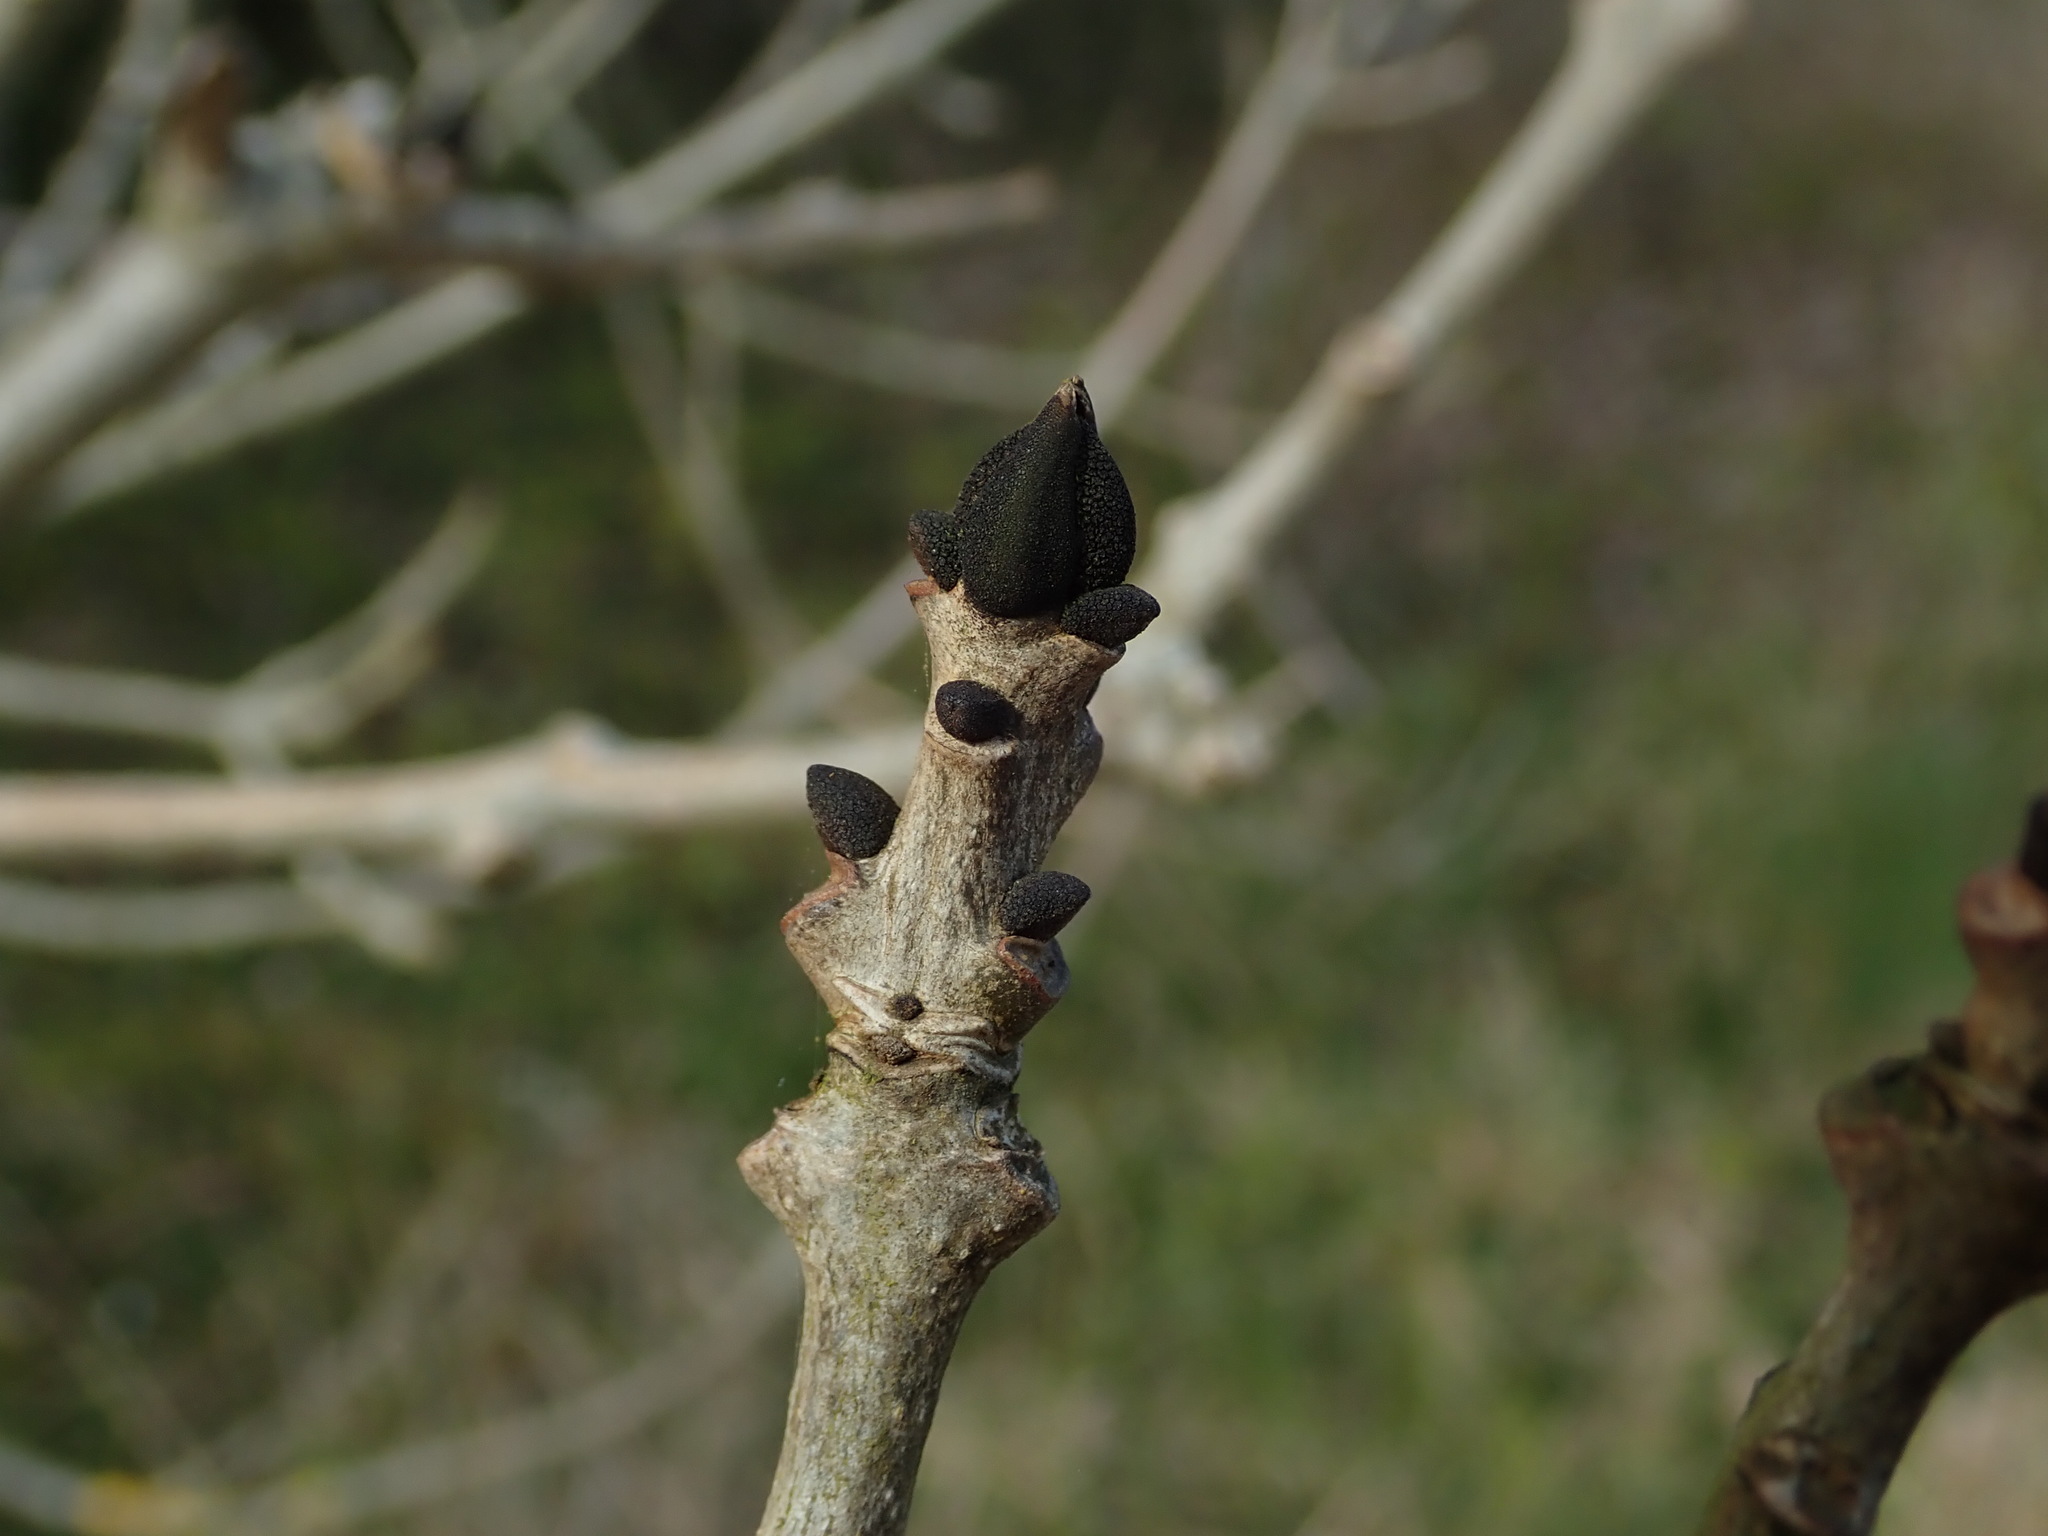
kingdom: Plantae
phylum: Tracheophyta
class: Magnoliopsida
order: Lamiales
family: Oleaceae
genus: Fraxinus
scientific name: Fraxinus excelsior
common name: European ash
